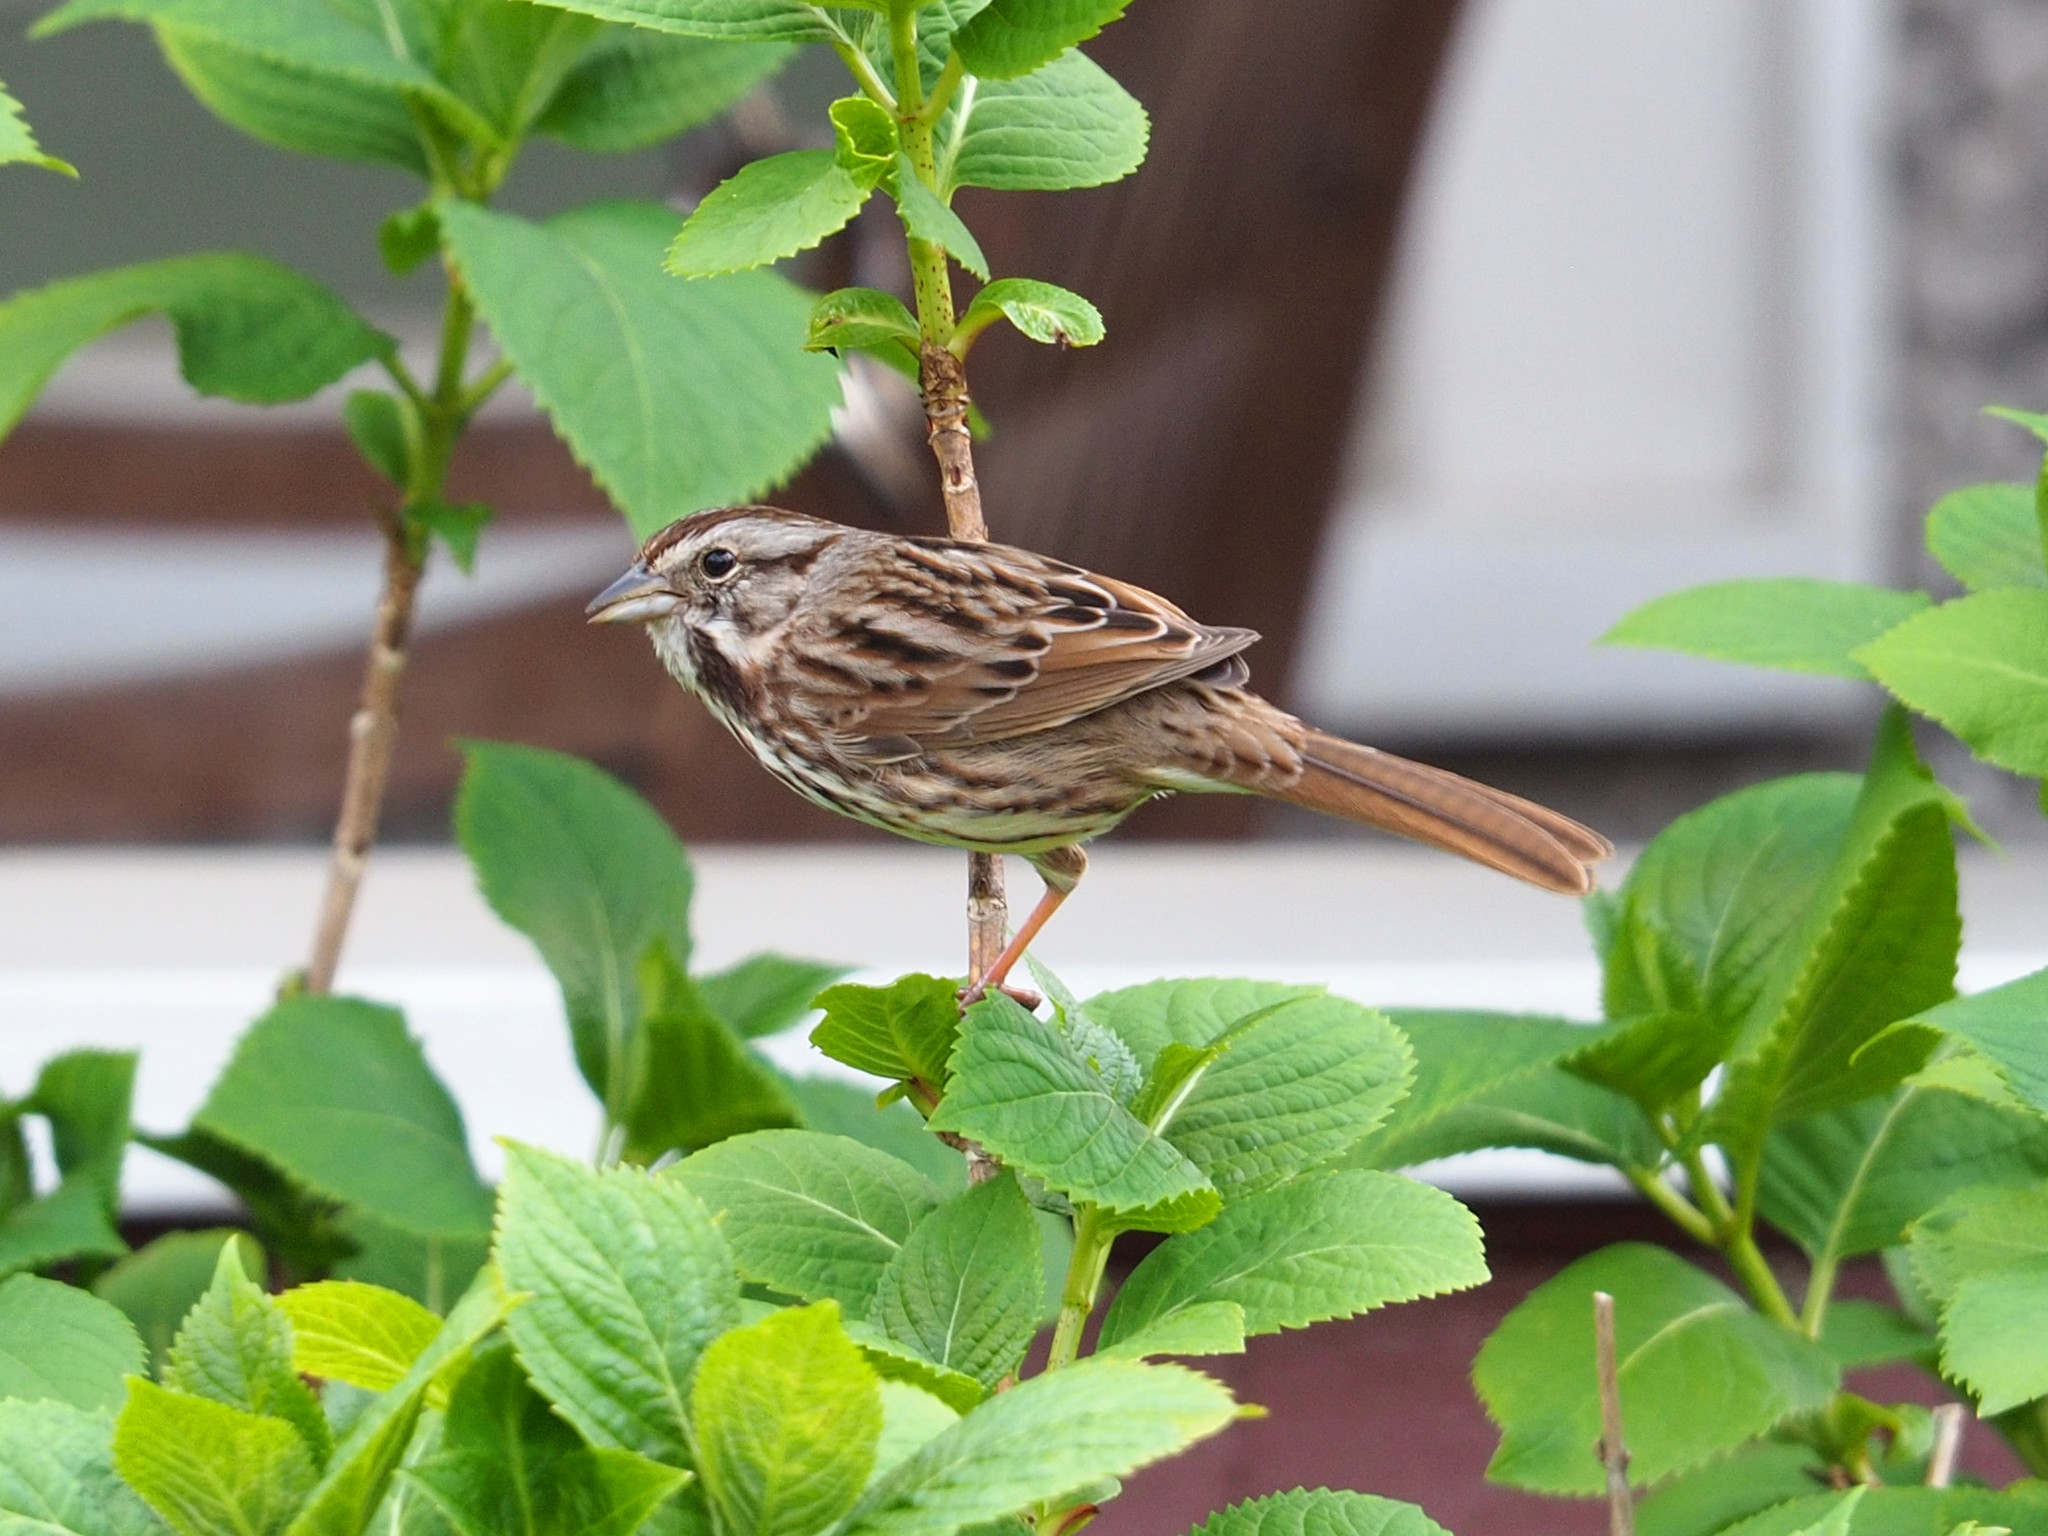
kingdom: Animalia
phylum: Chordata
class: Aves
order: Passeriformes
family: Passerellidae
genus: Melospiza
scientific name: Melospiza melodia
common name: Song sparrow
